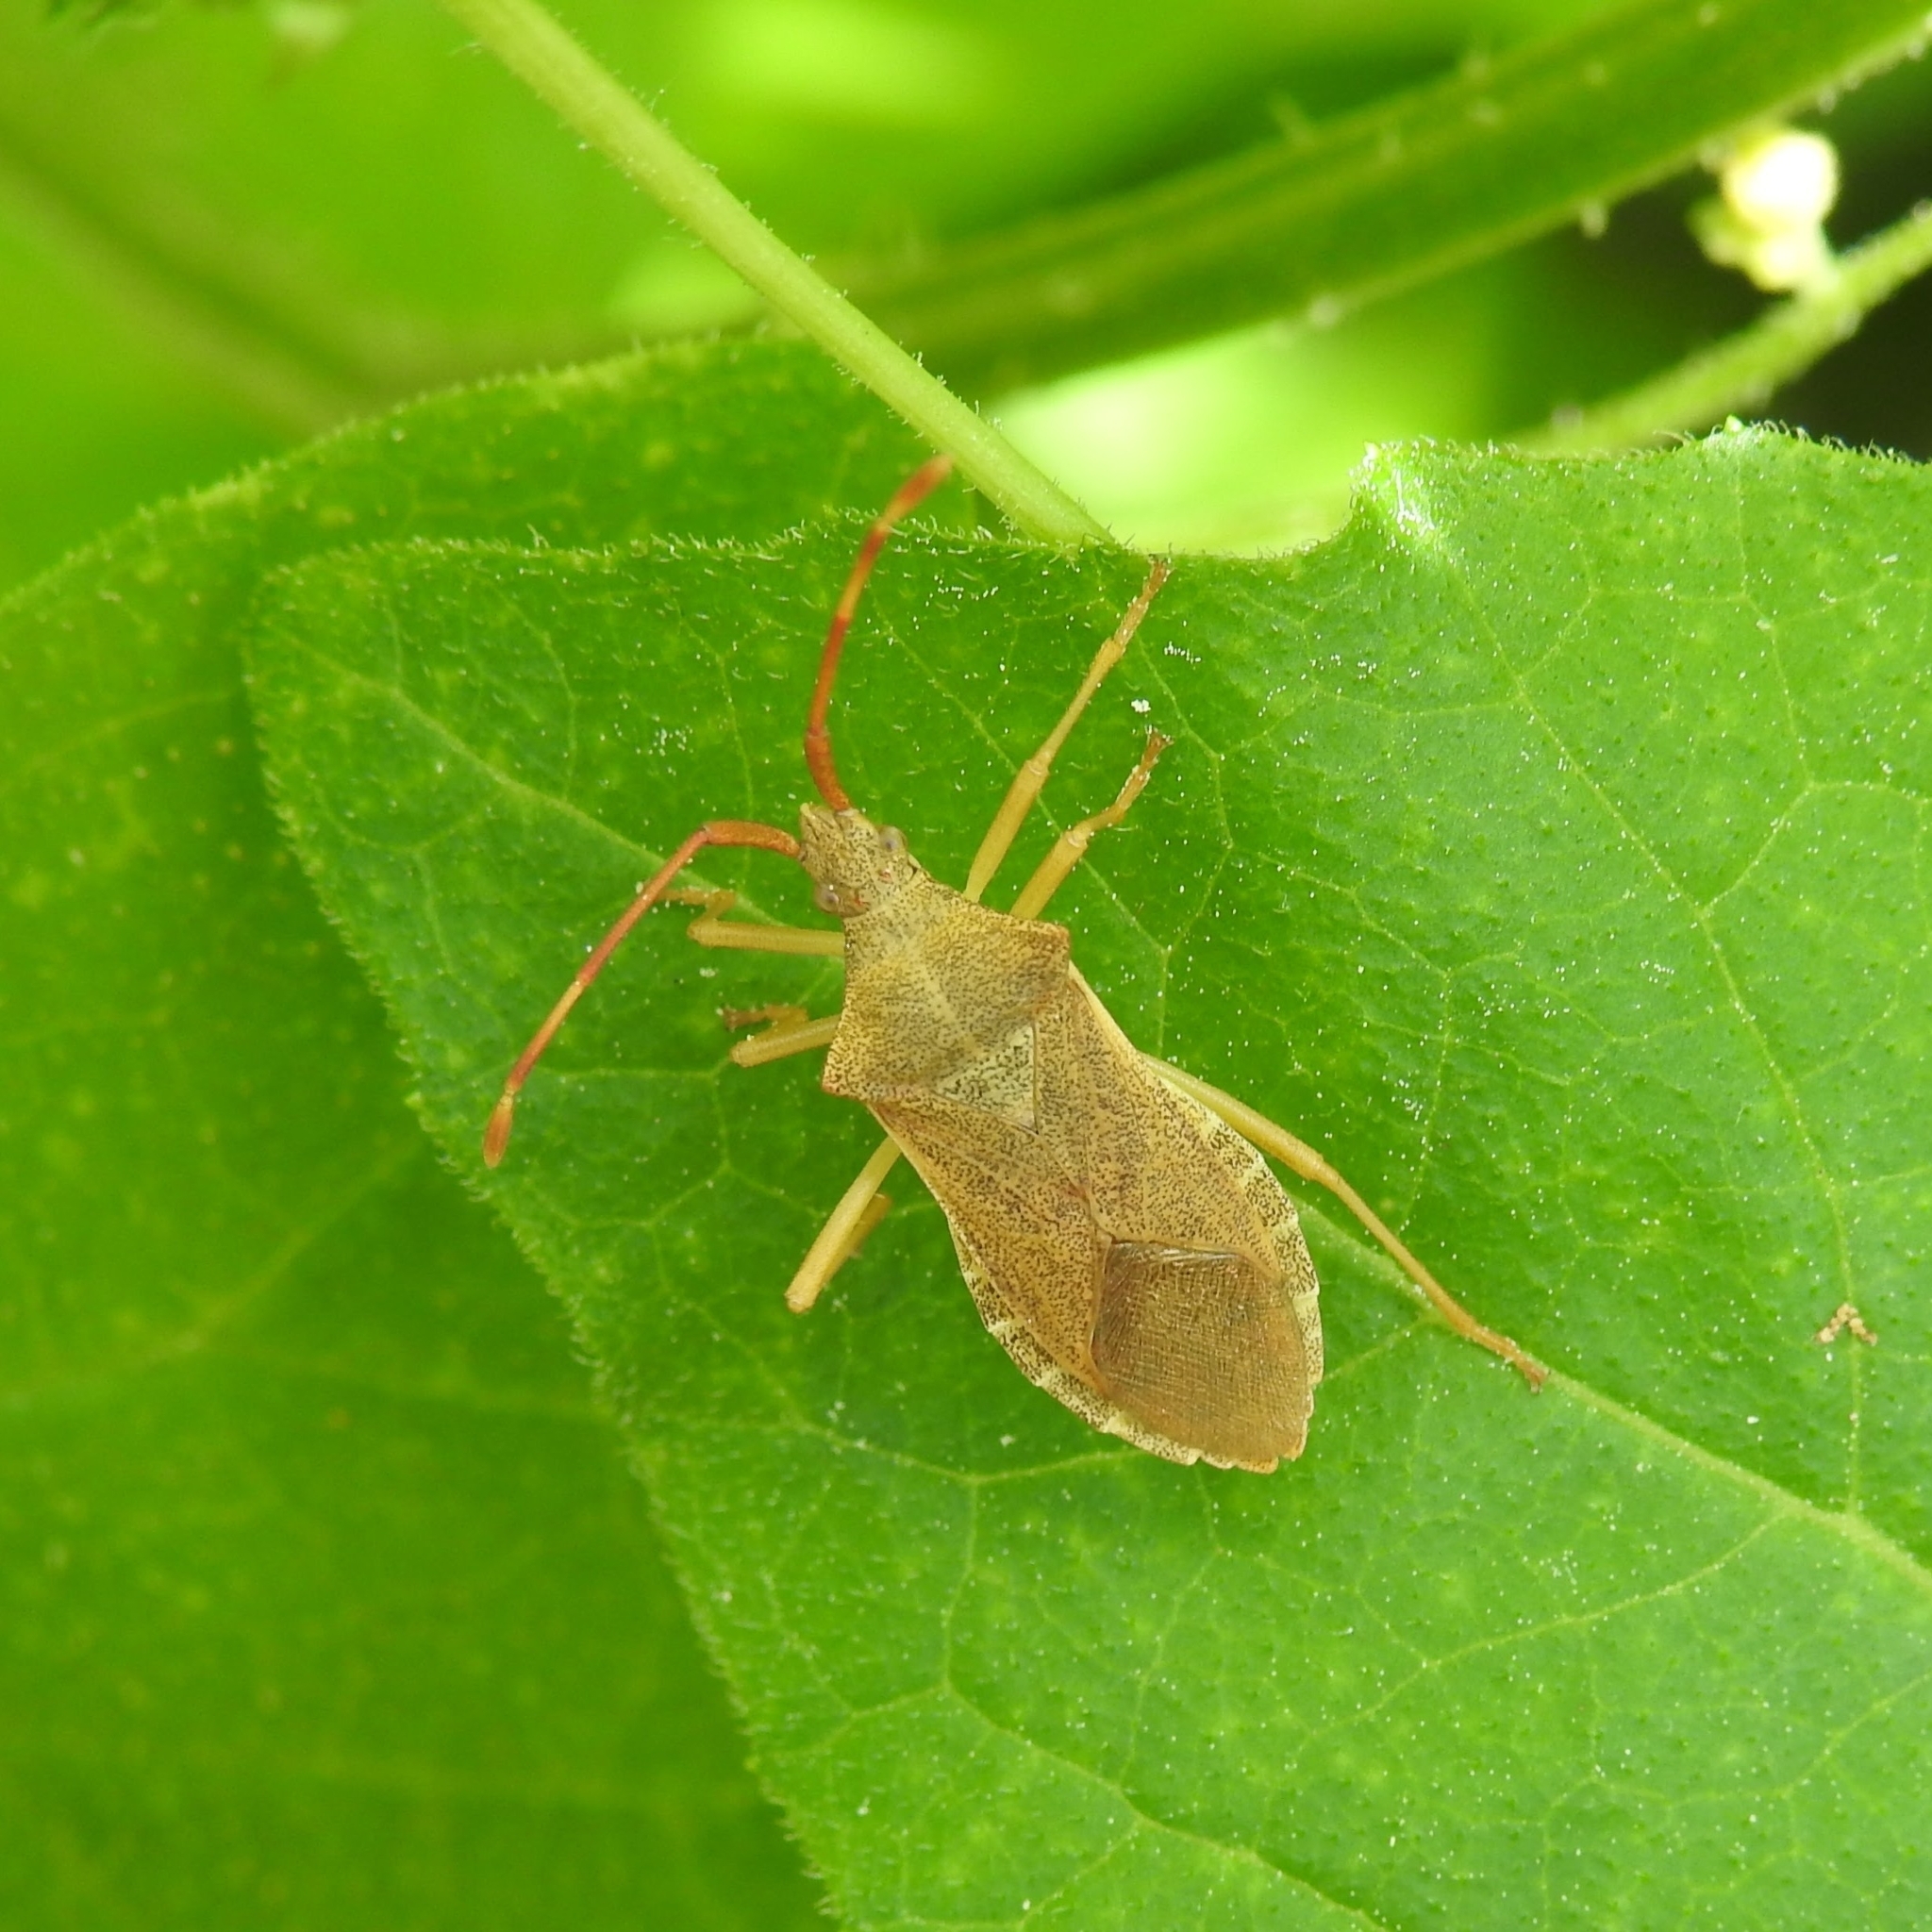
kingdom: Animalia
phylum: Arthropoda
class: Insecta
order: Hemiptera
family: Coreidae
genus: Gonocerus
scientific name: Gonocerus acuteangulatus
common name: Box bug
